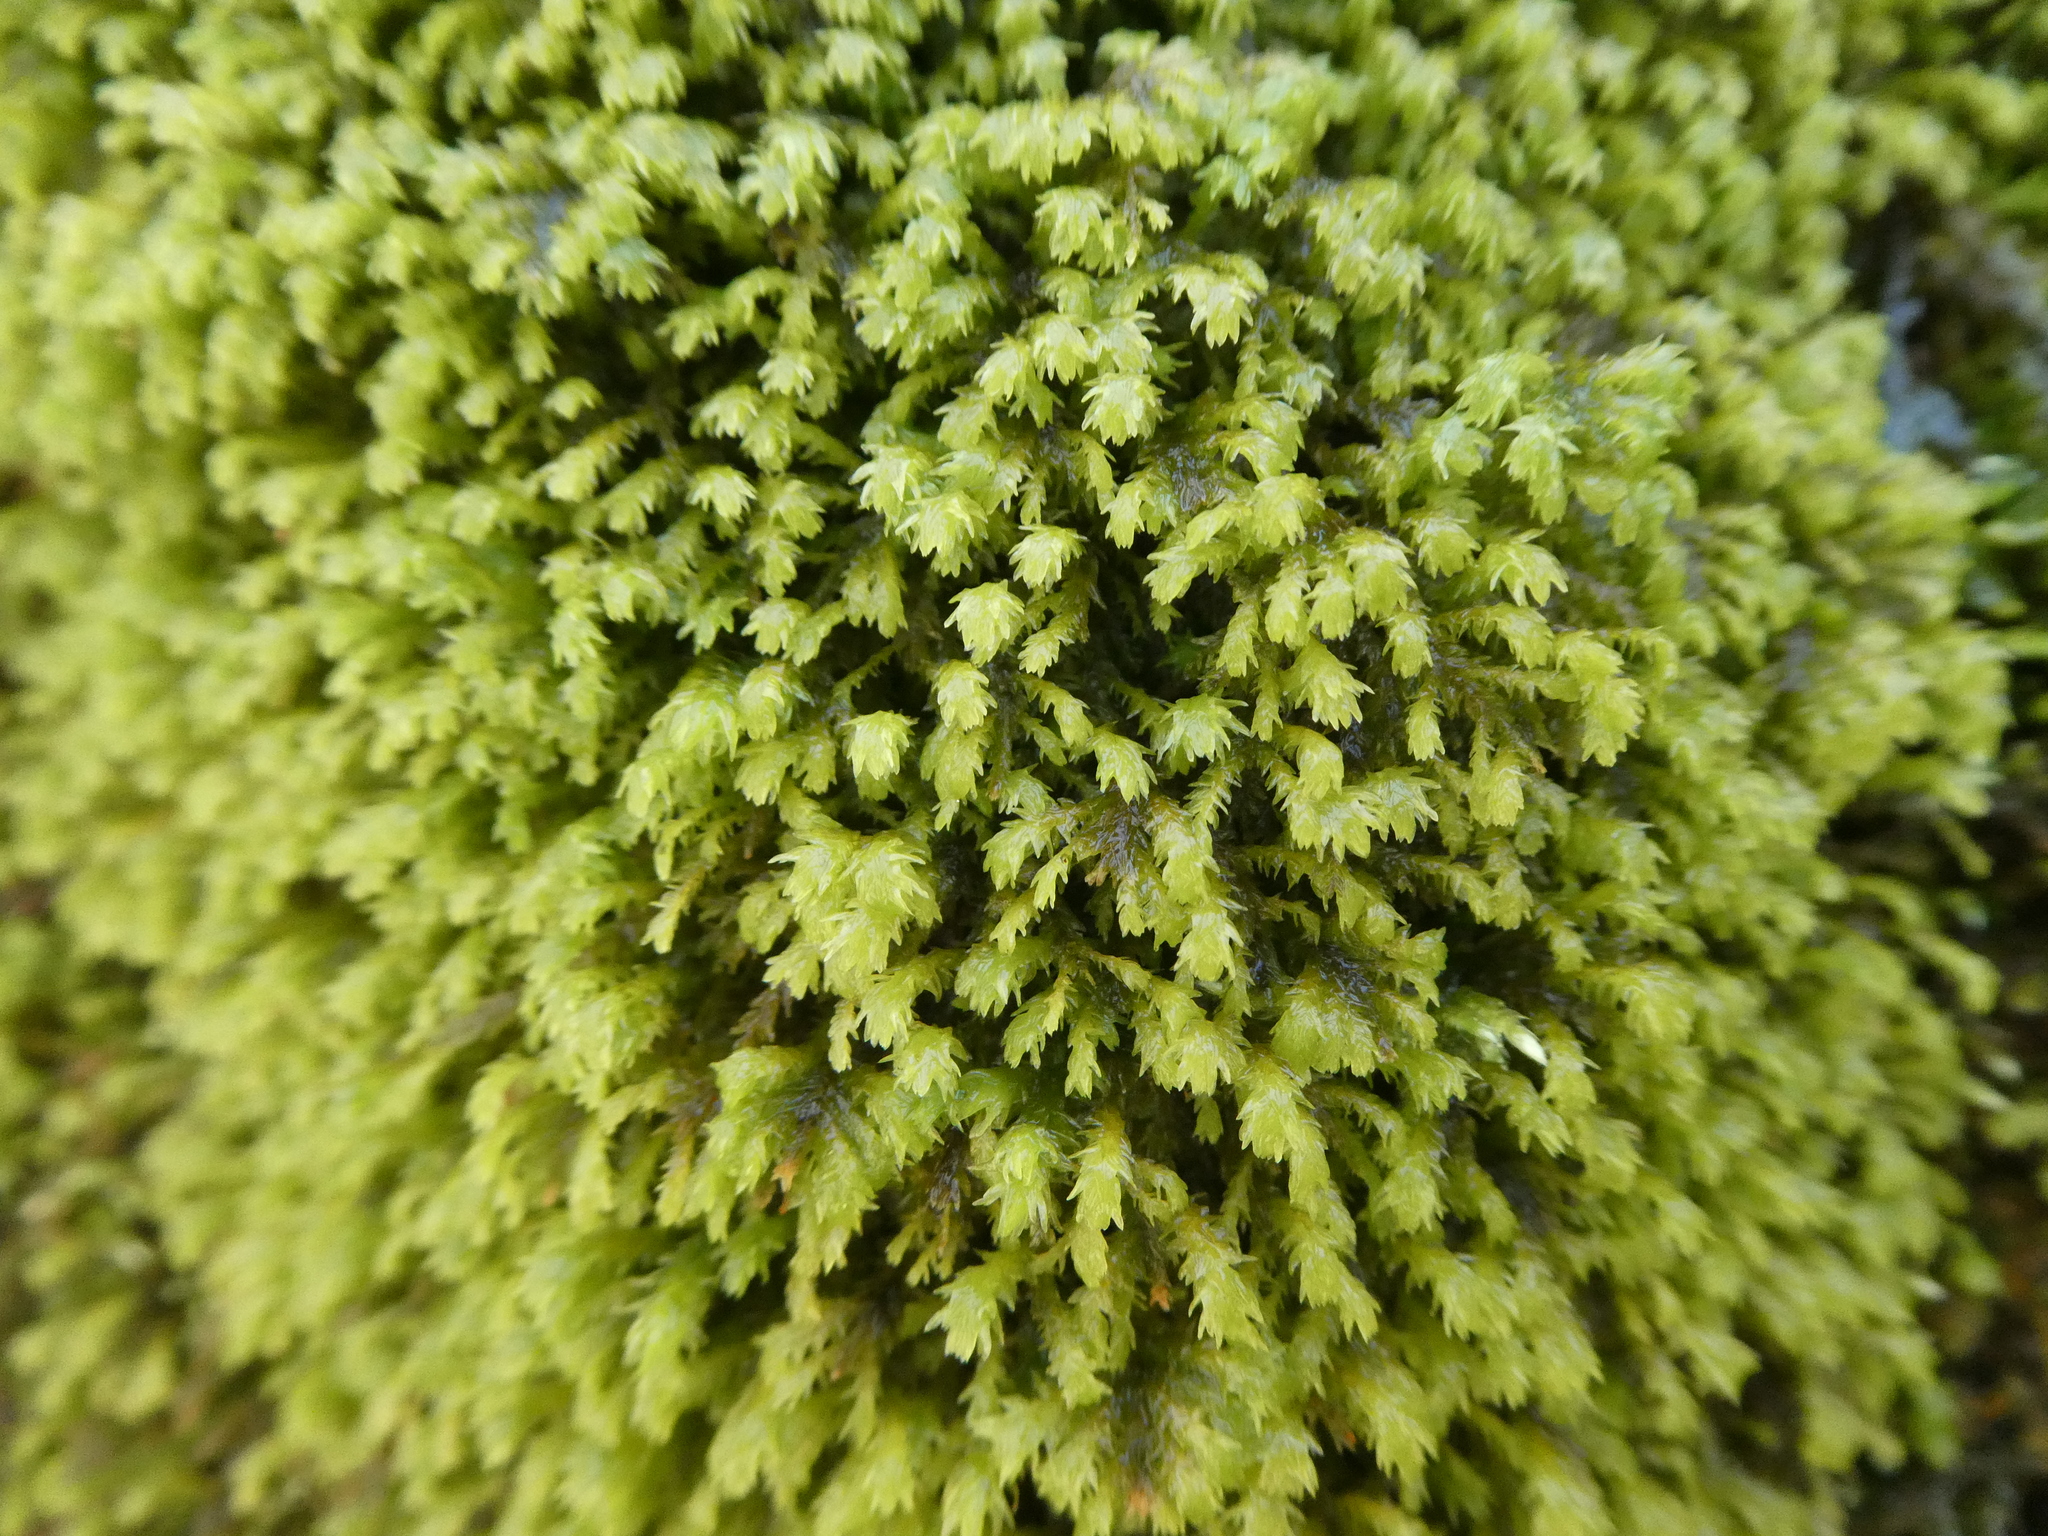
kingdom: Plantae
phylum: Bryophyta
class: Bryopsida
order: Hypnales
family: Neckeraceae
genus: Pseudanomodon
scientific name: Pseudanomodon attenuatus
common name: Tree-skirt moss
